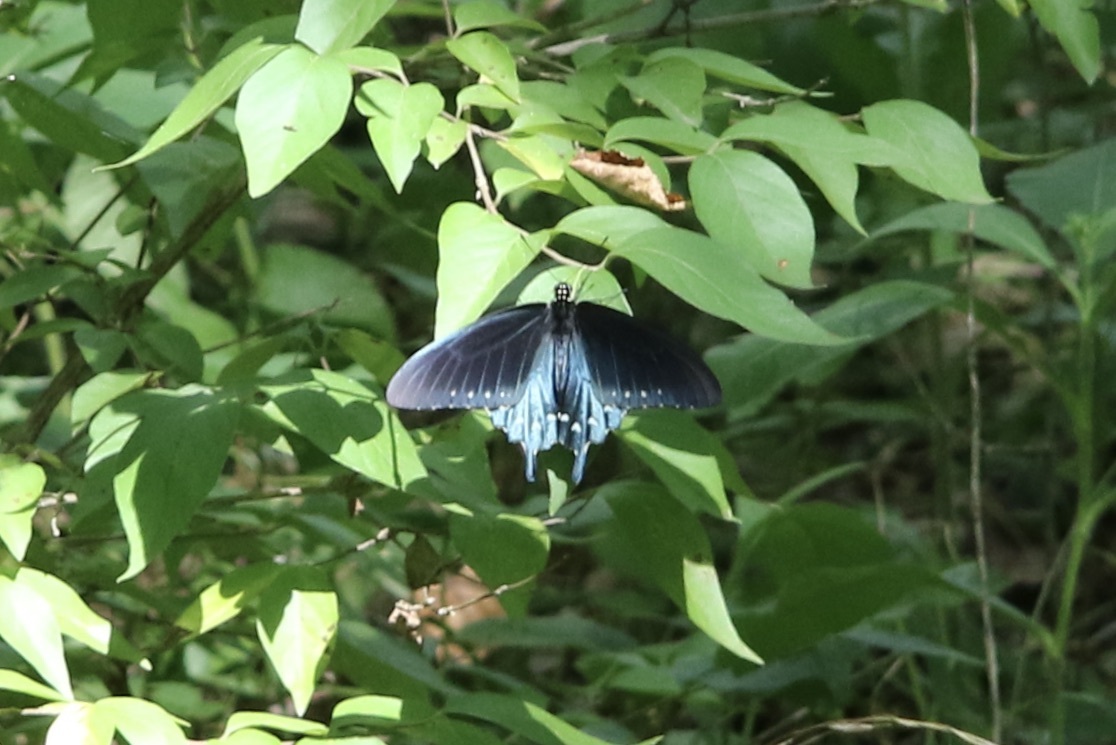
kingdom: Animalia
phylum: Arthropoda
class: Insecta
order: Lepidoptera
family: Papilionidae
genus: Battus
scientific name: Battus philenor
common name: Pipevine swallowtail
